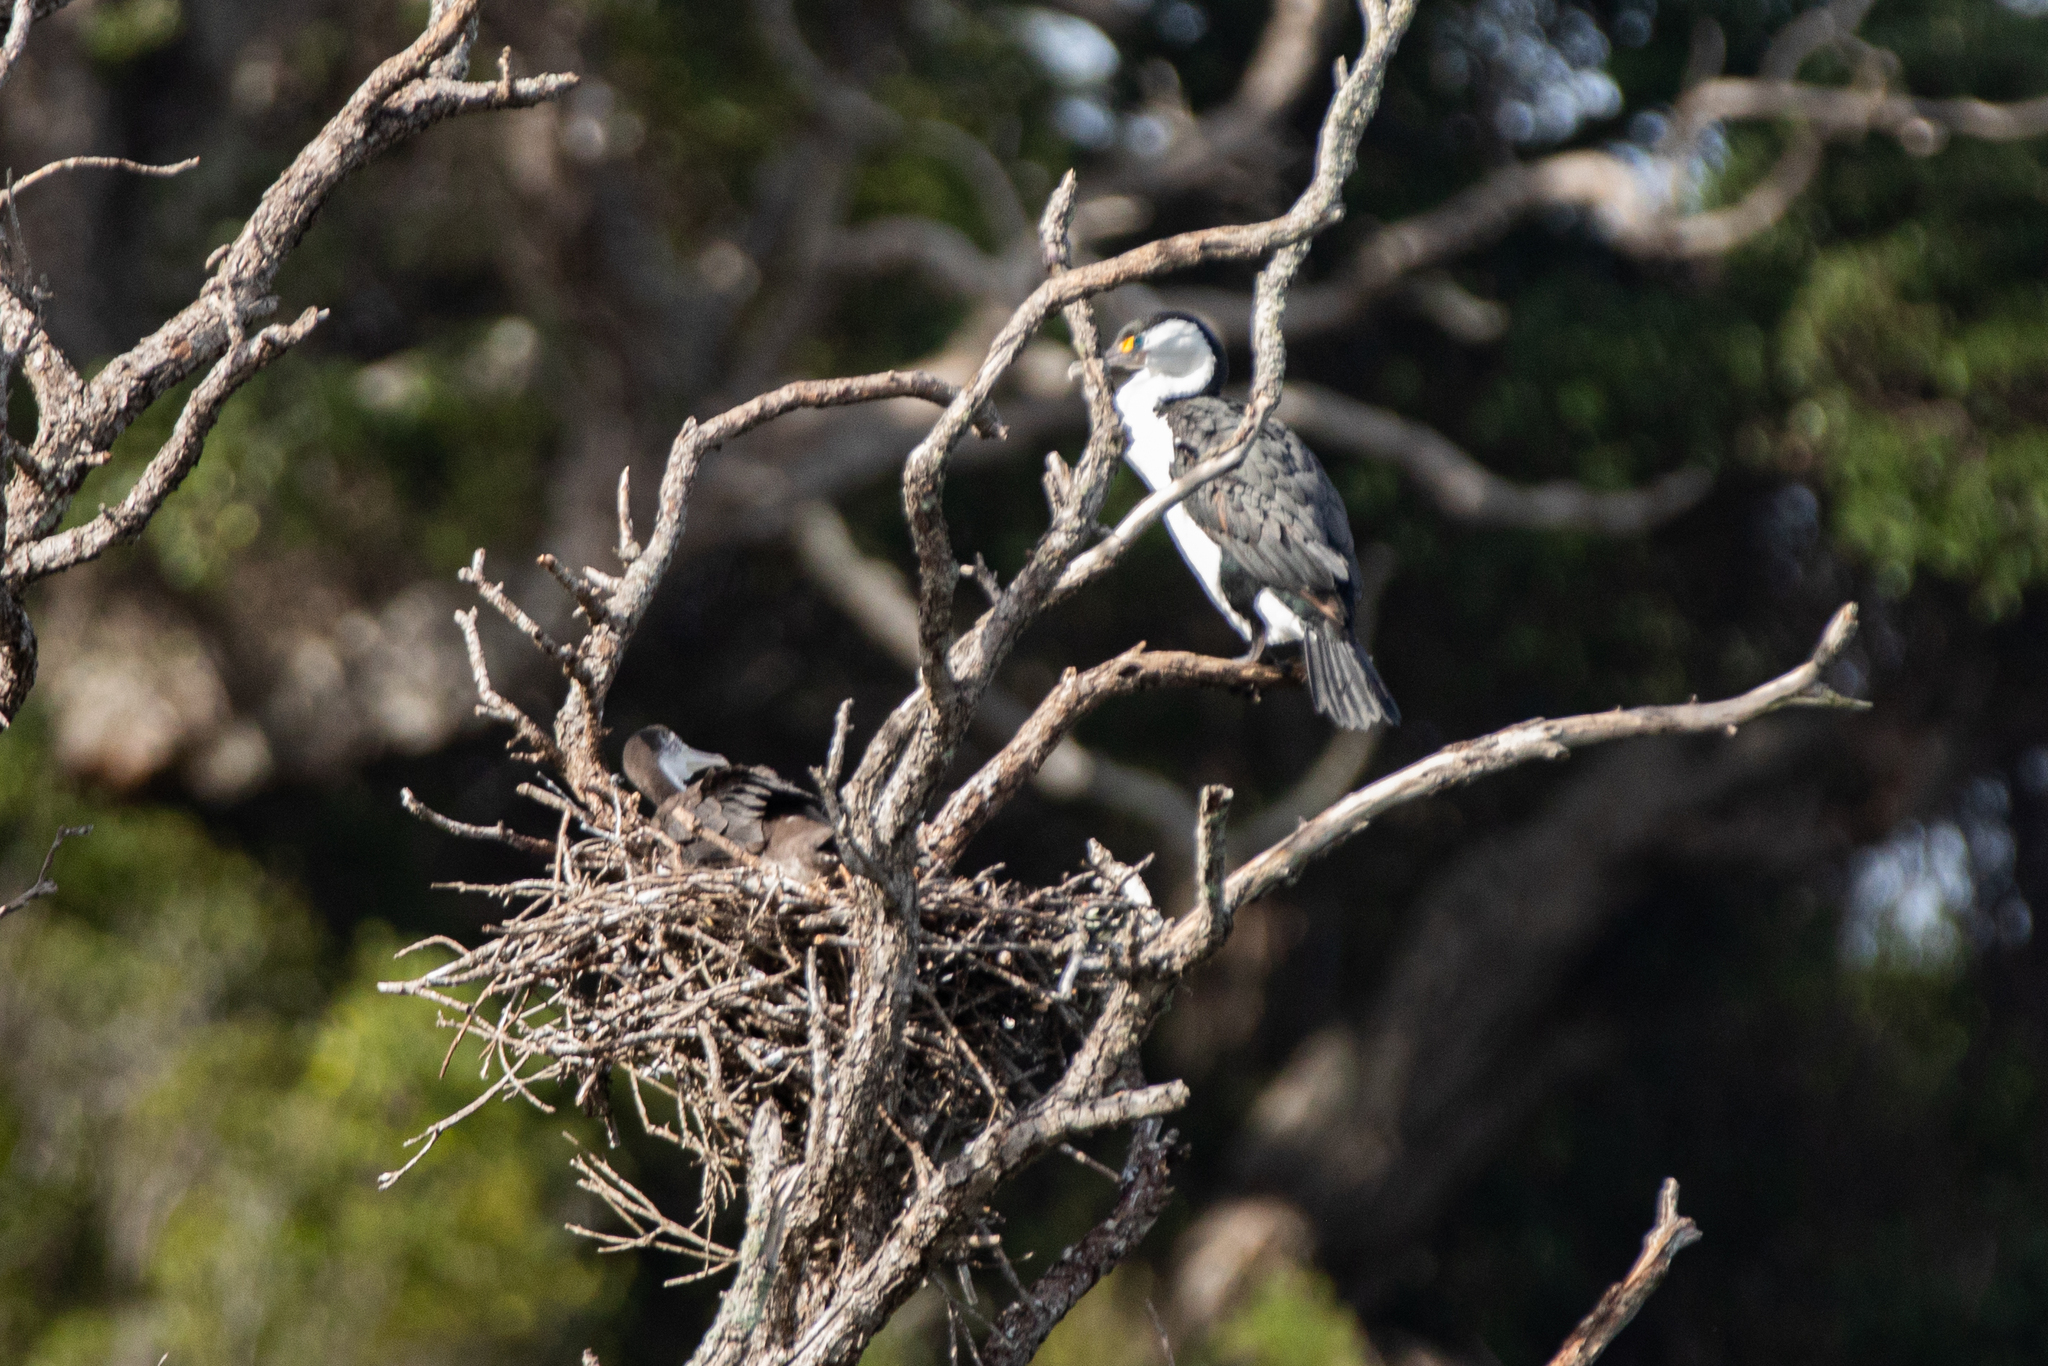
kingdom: Animalia
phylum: Chordata
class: Aves
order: Suliformes
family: Phalacrocoracidae
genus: Phalacrocorax
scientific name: Phalacrocorax varius
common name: Pied cormorant
